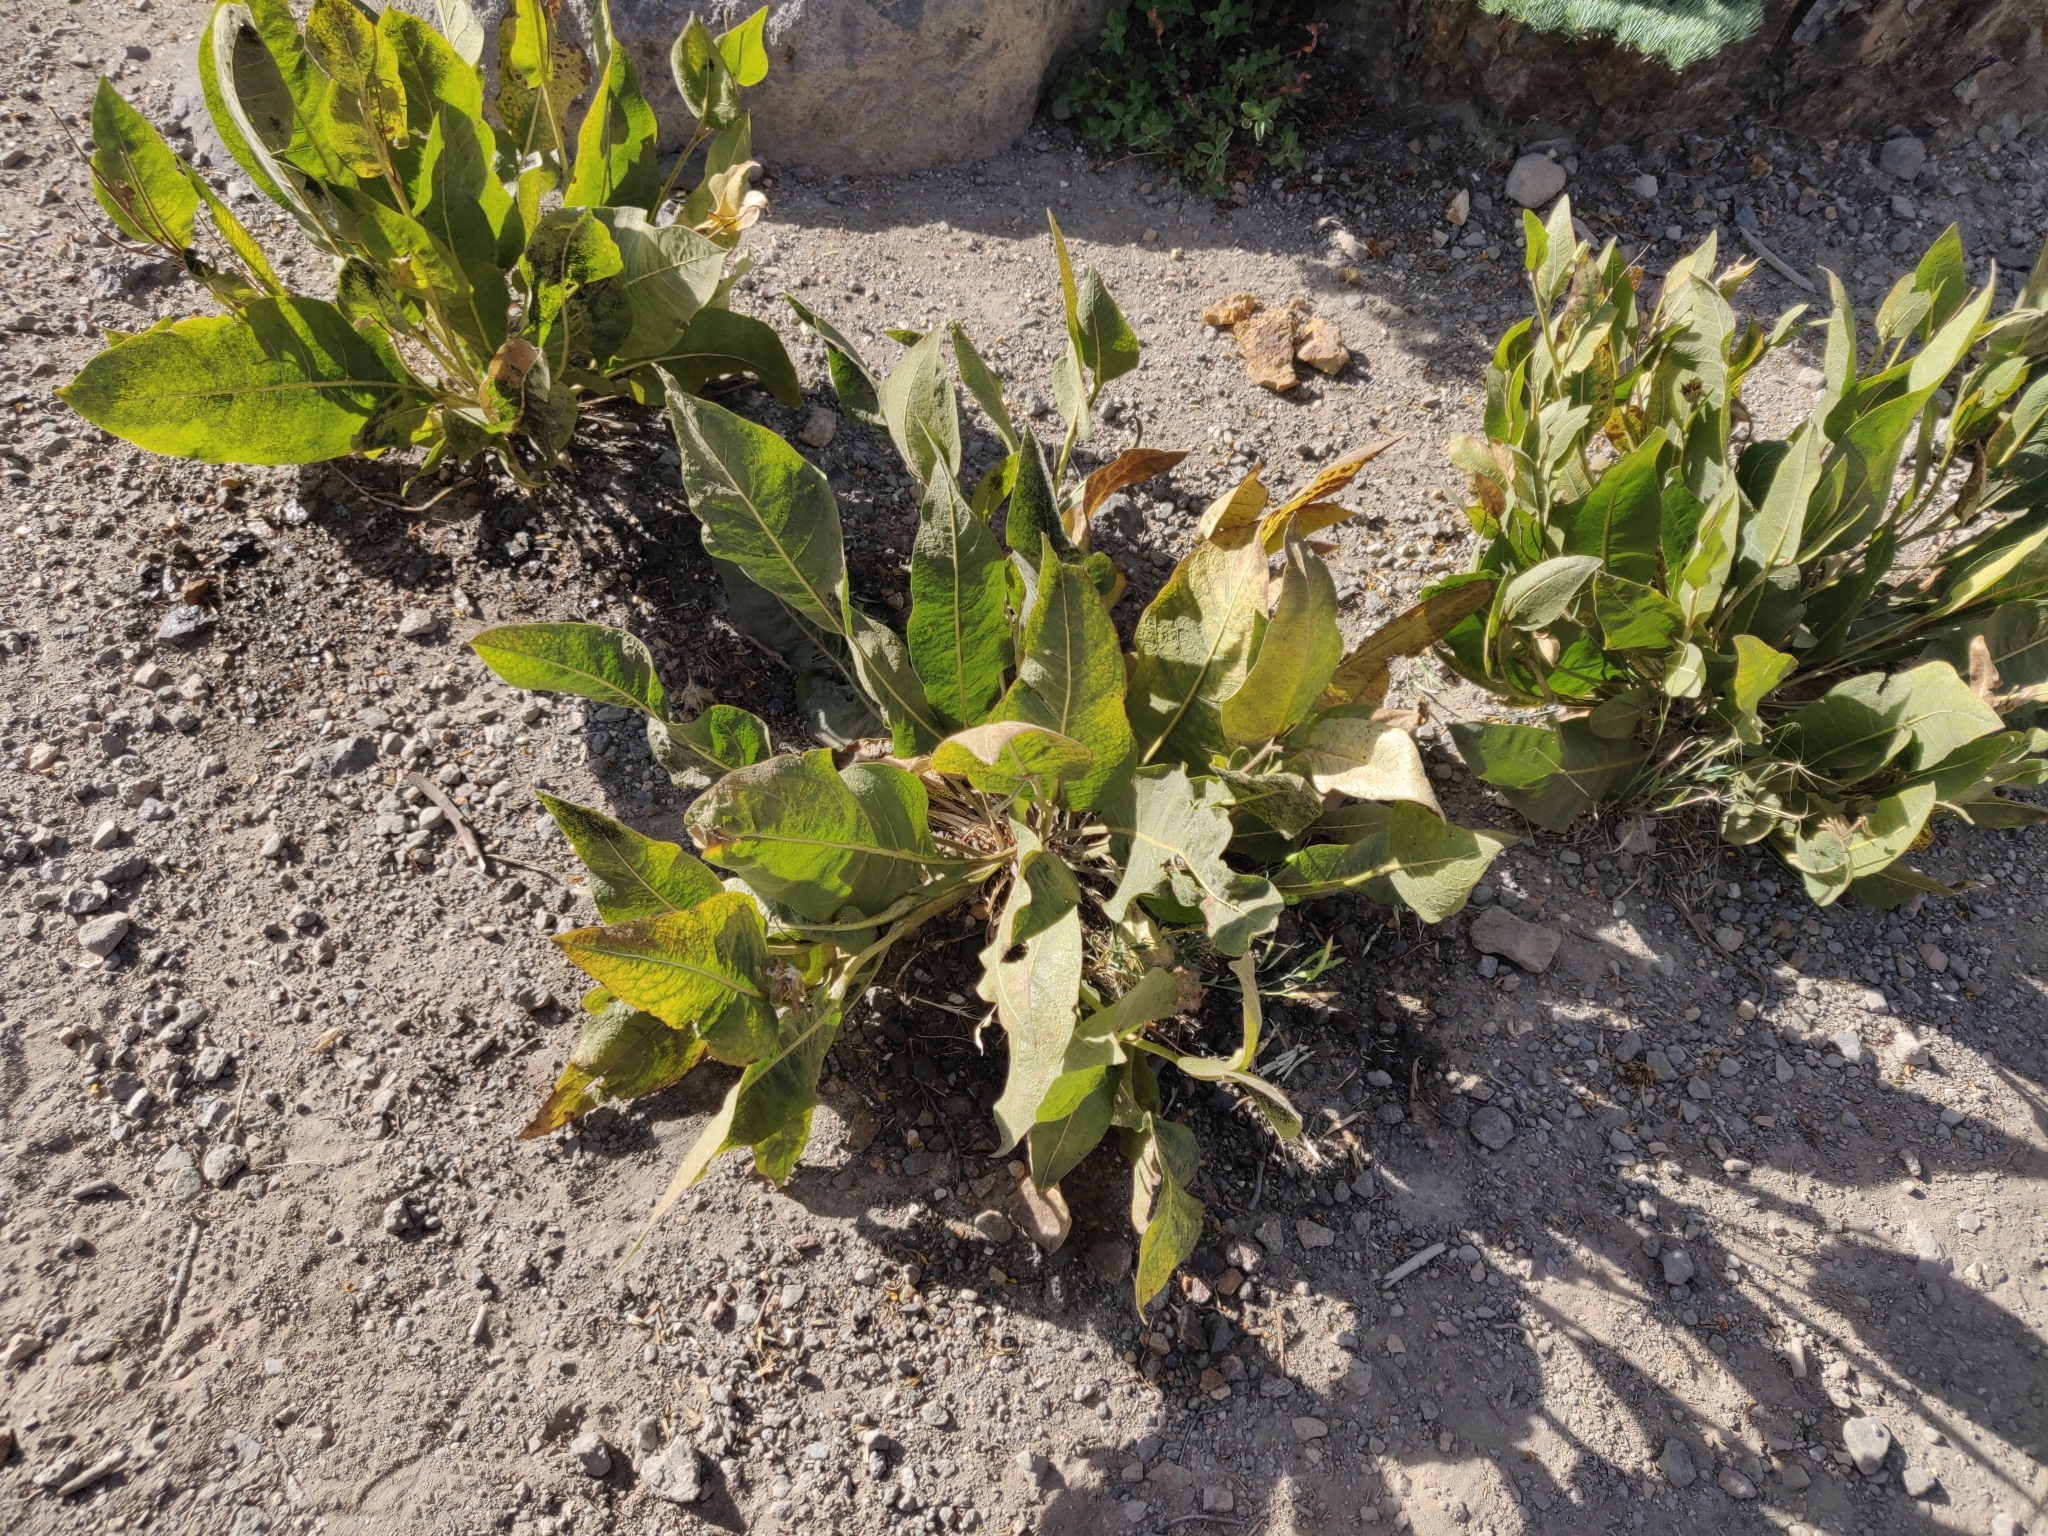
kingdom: Plantae
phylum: Tracheophyta
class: Magnoliopsida
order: Asterales
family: Asteraceae
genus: Wyethia
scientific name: Wyethia mollis
